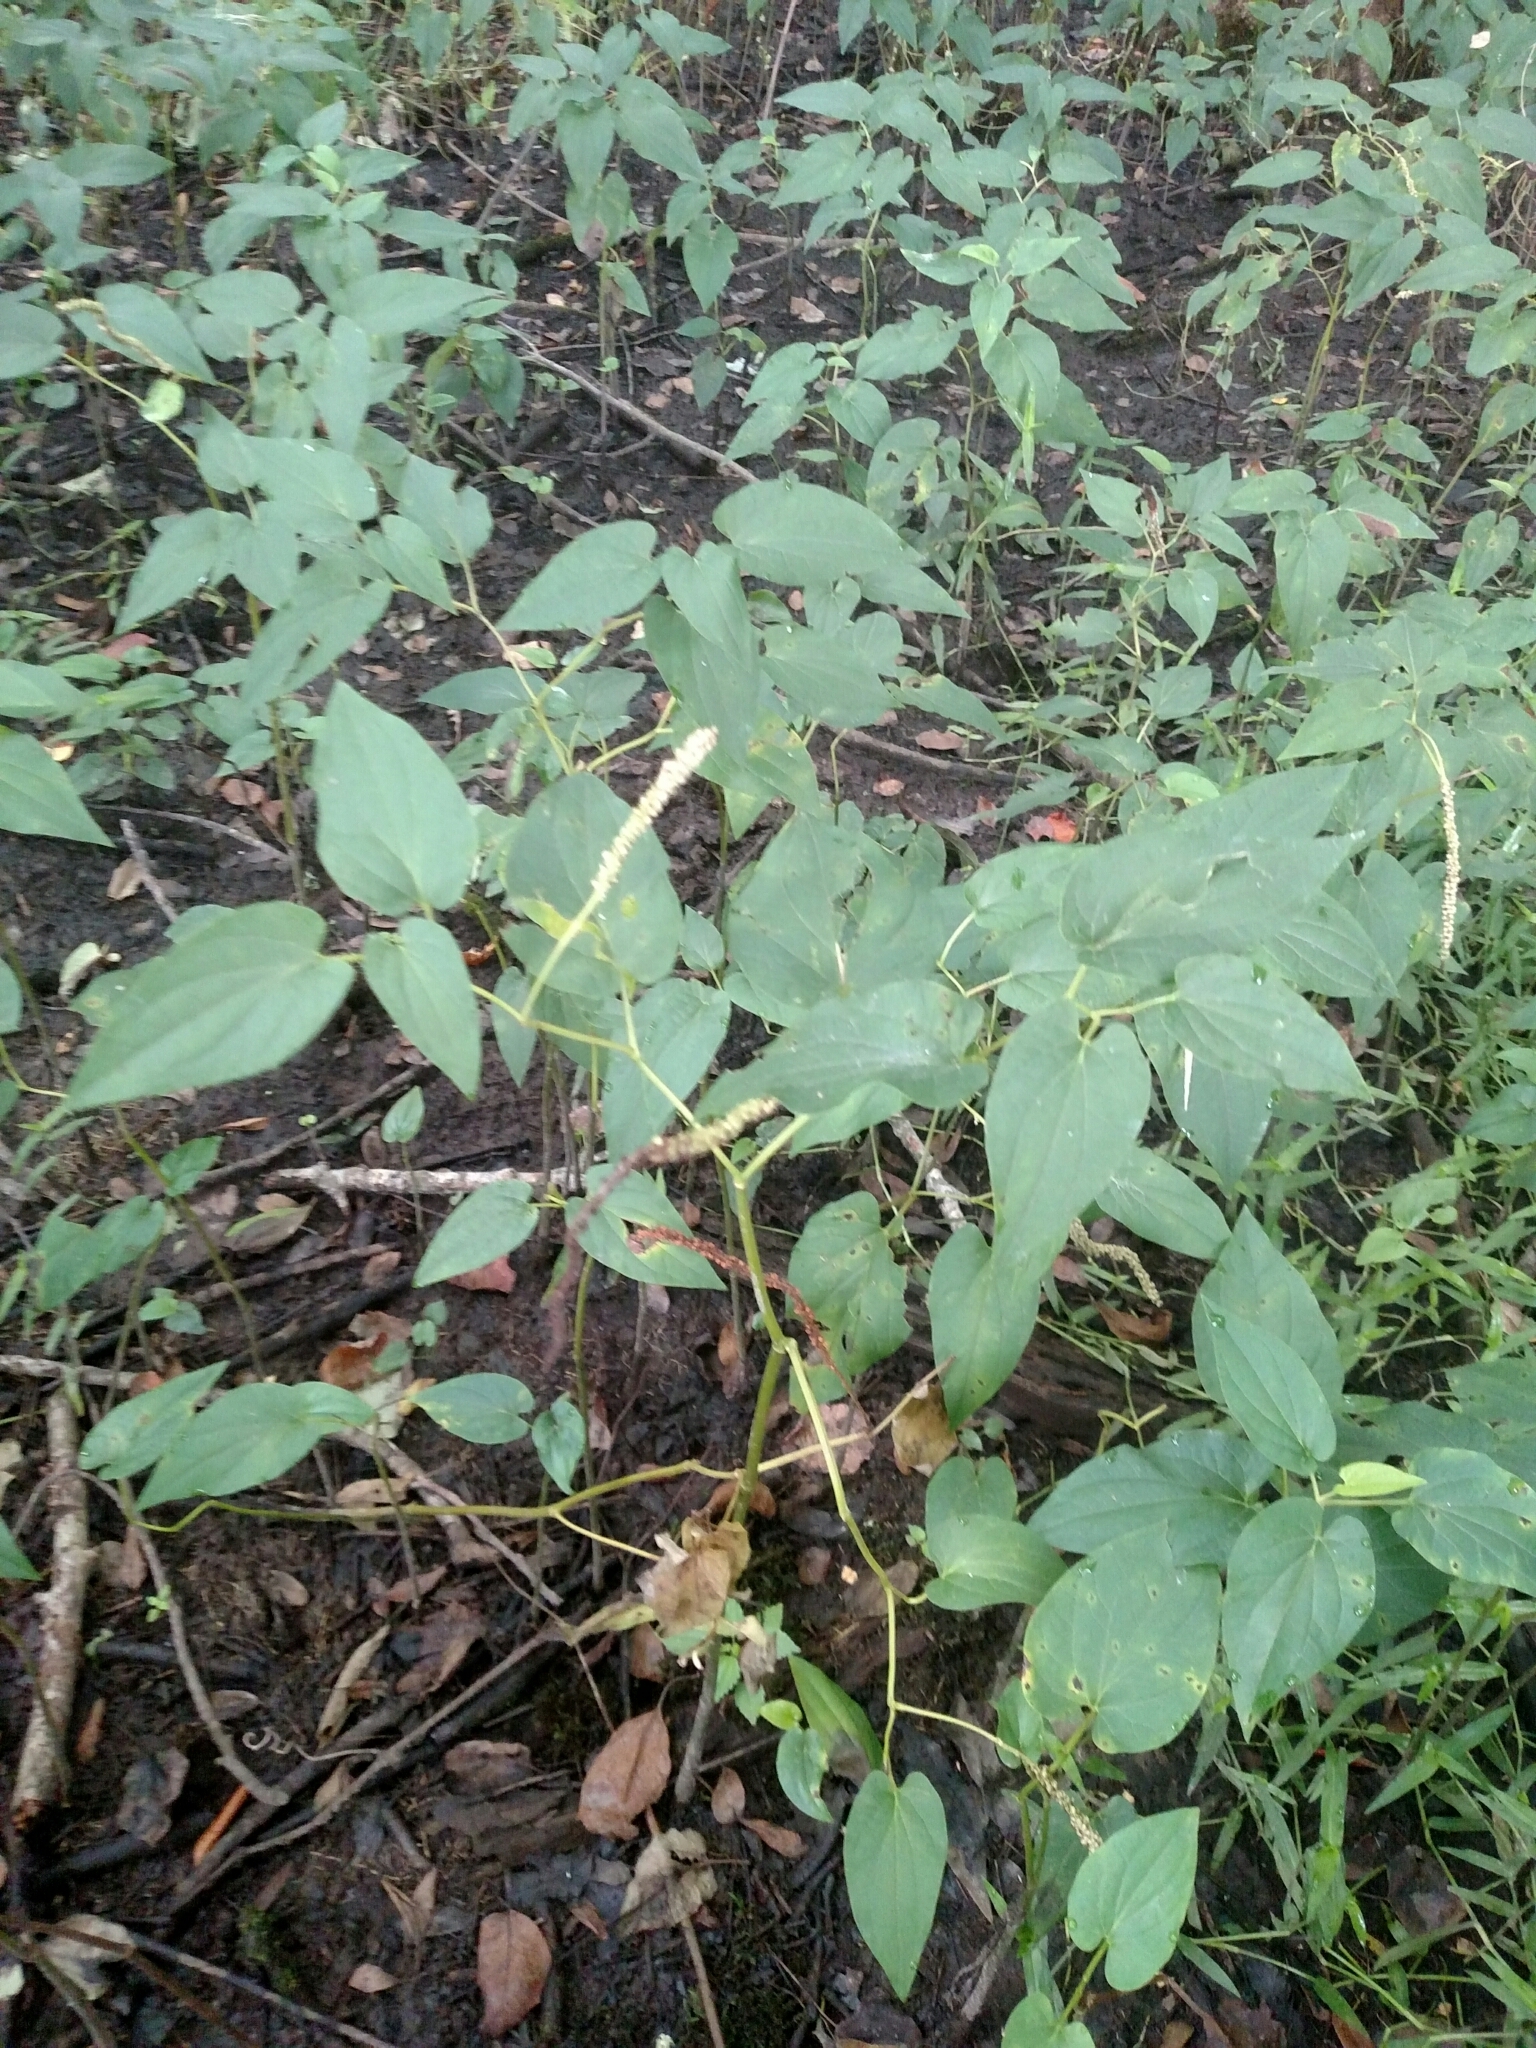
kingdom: Plantae
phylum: Tracheophyta
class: Magnoliopsida
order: Piperales
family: Saururaceae
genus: Saururus
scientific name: Saururus cernuus
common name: Lizard's-tail
